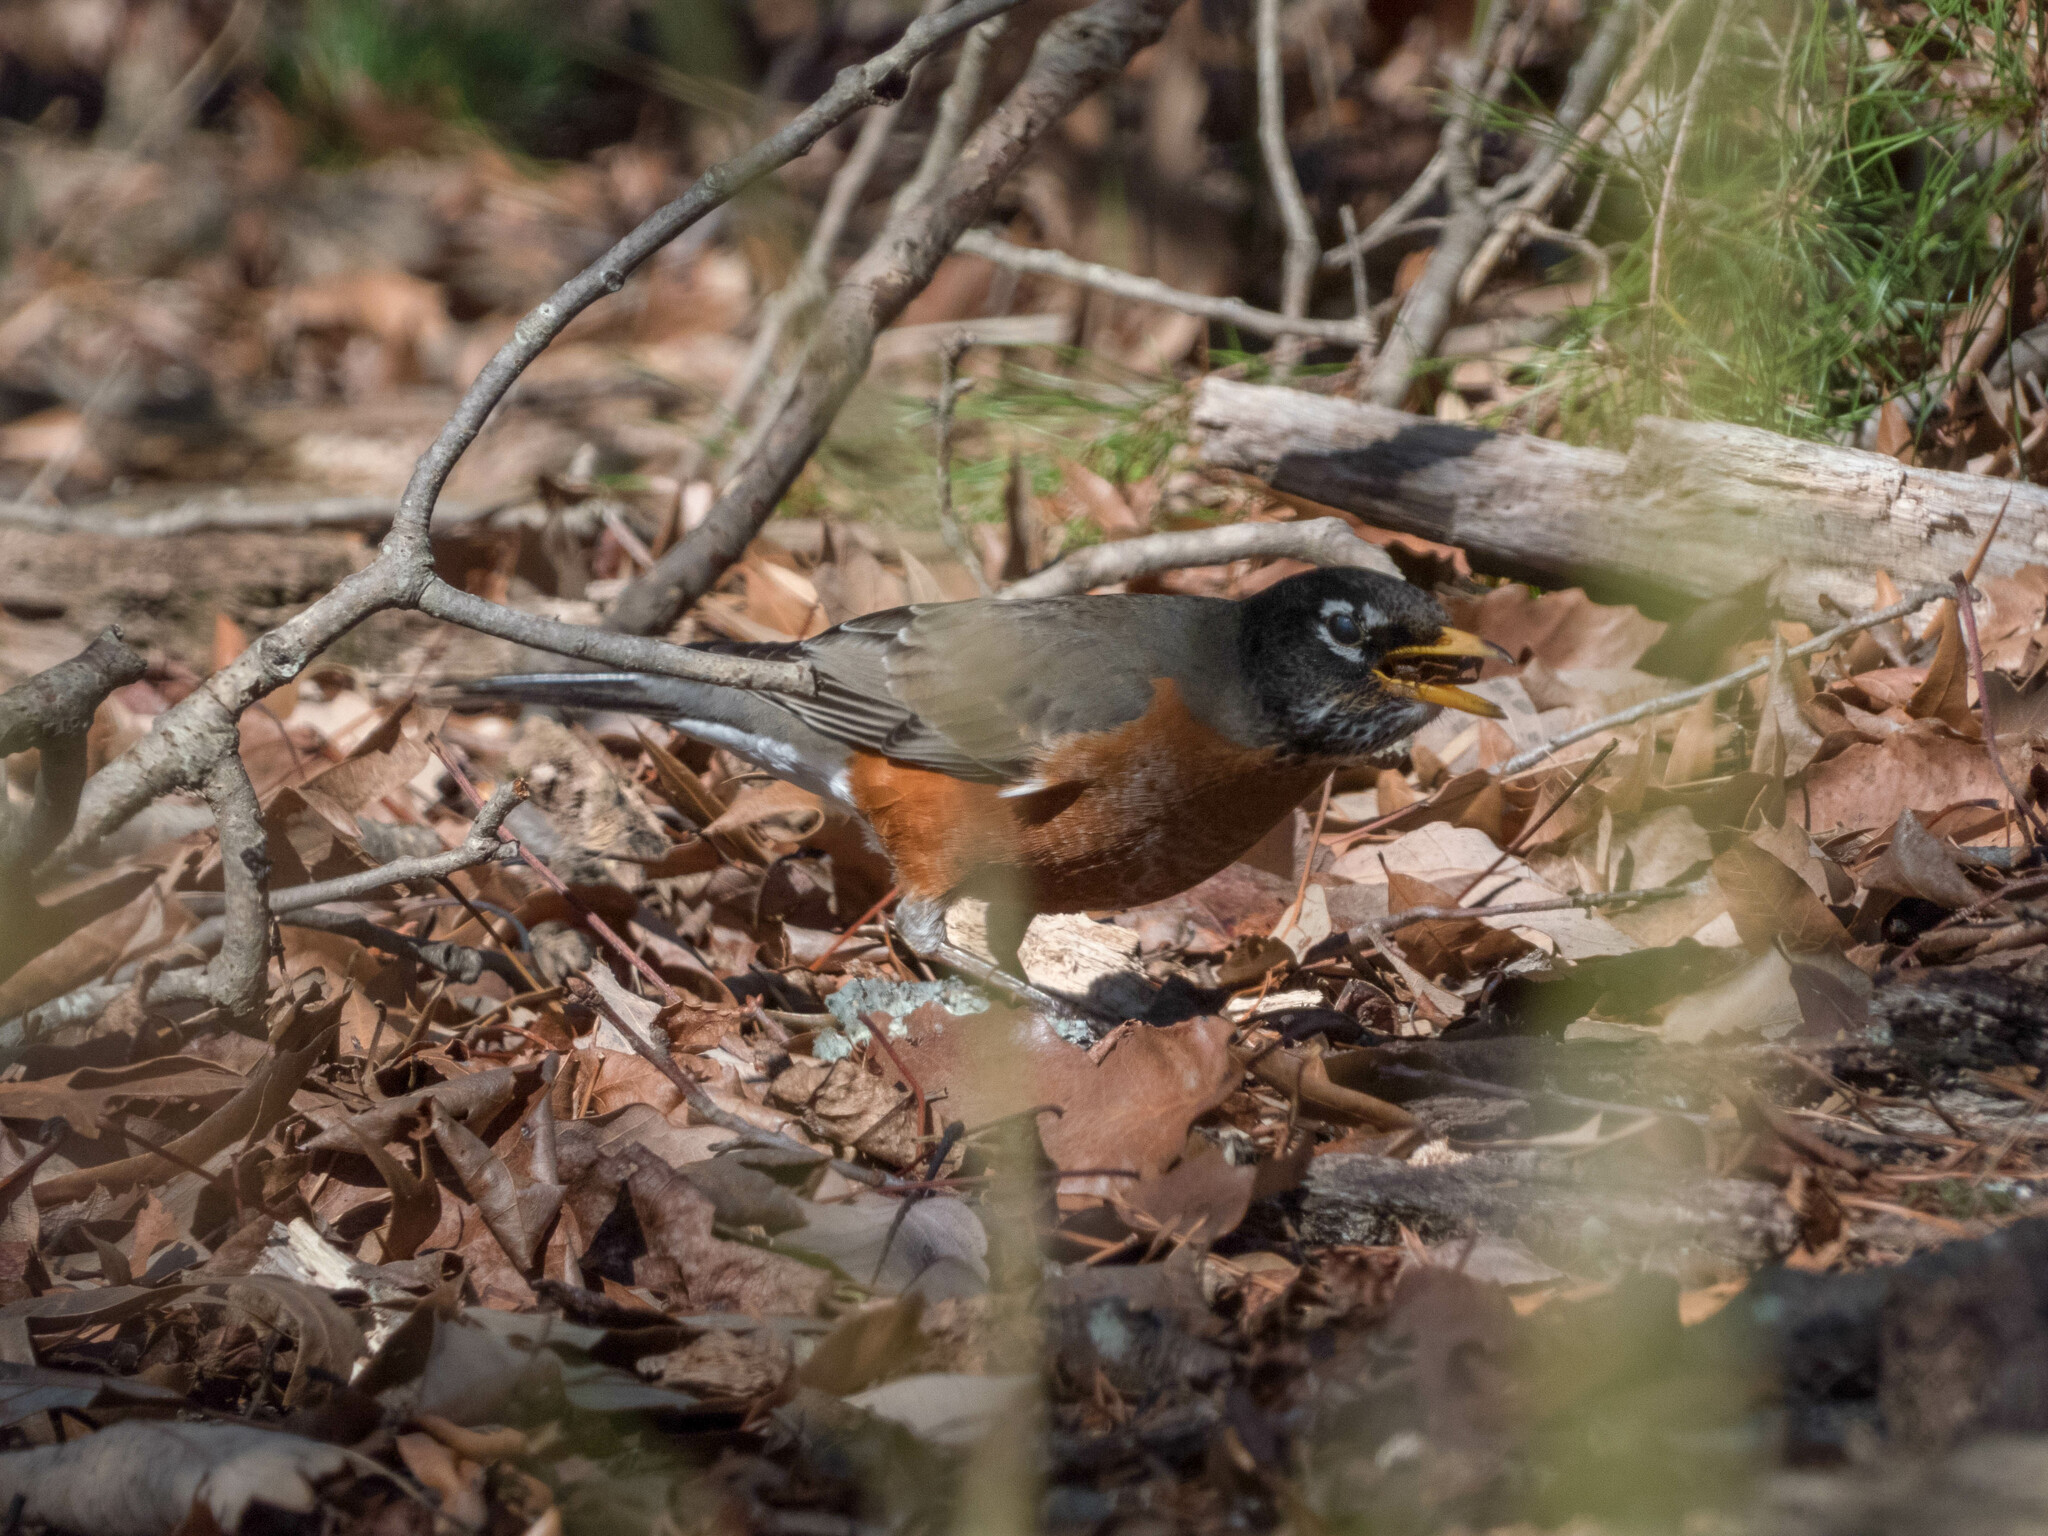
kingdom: Animalia
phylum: Chordata
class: Aves
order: Passeriformes
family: Turdidae
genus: Turdus
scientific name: Turdus migratorius
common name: American robin
